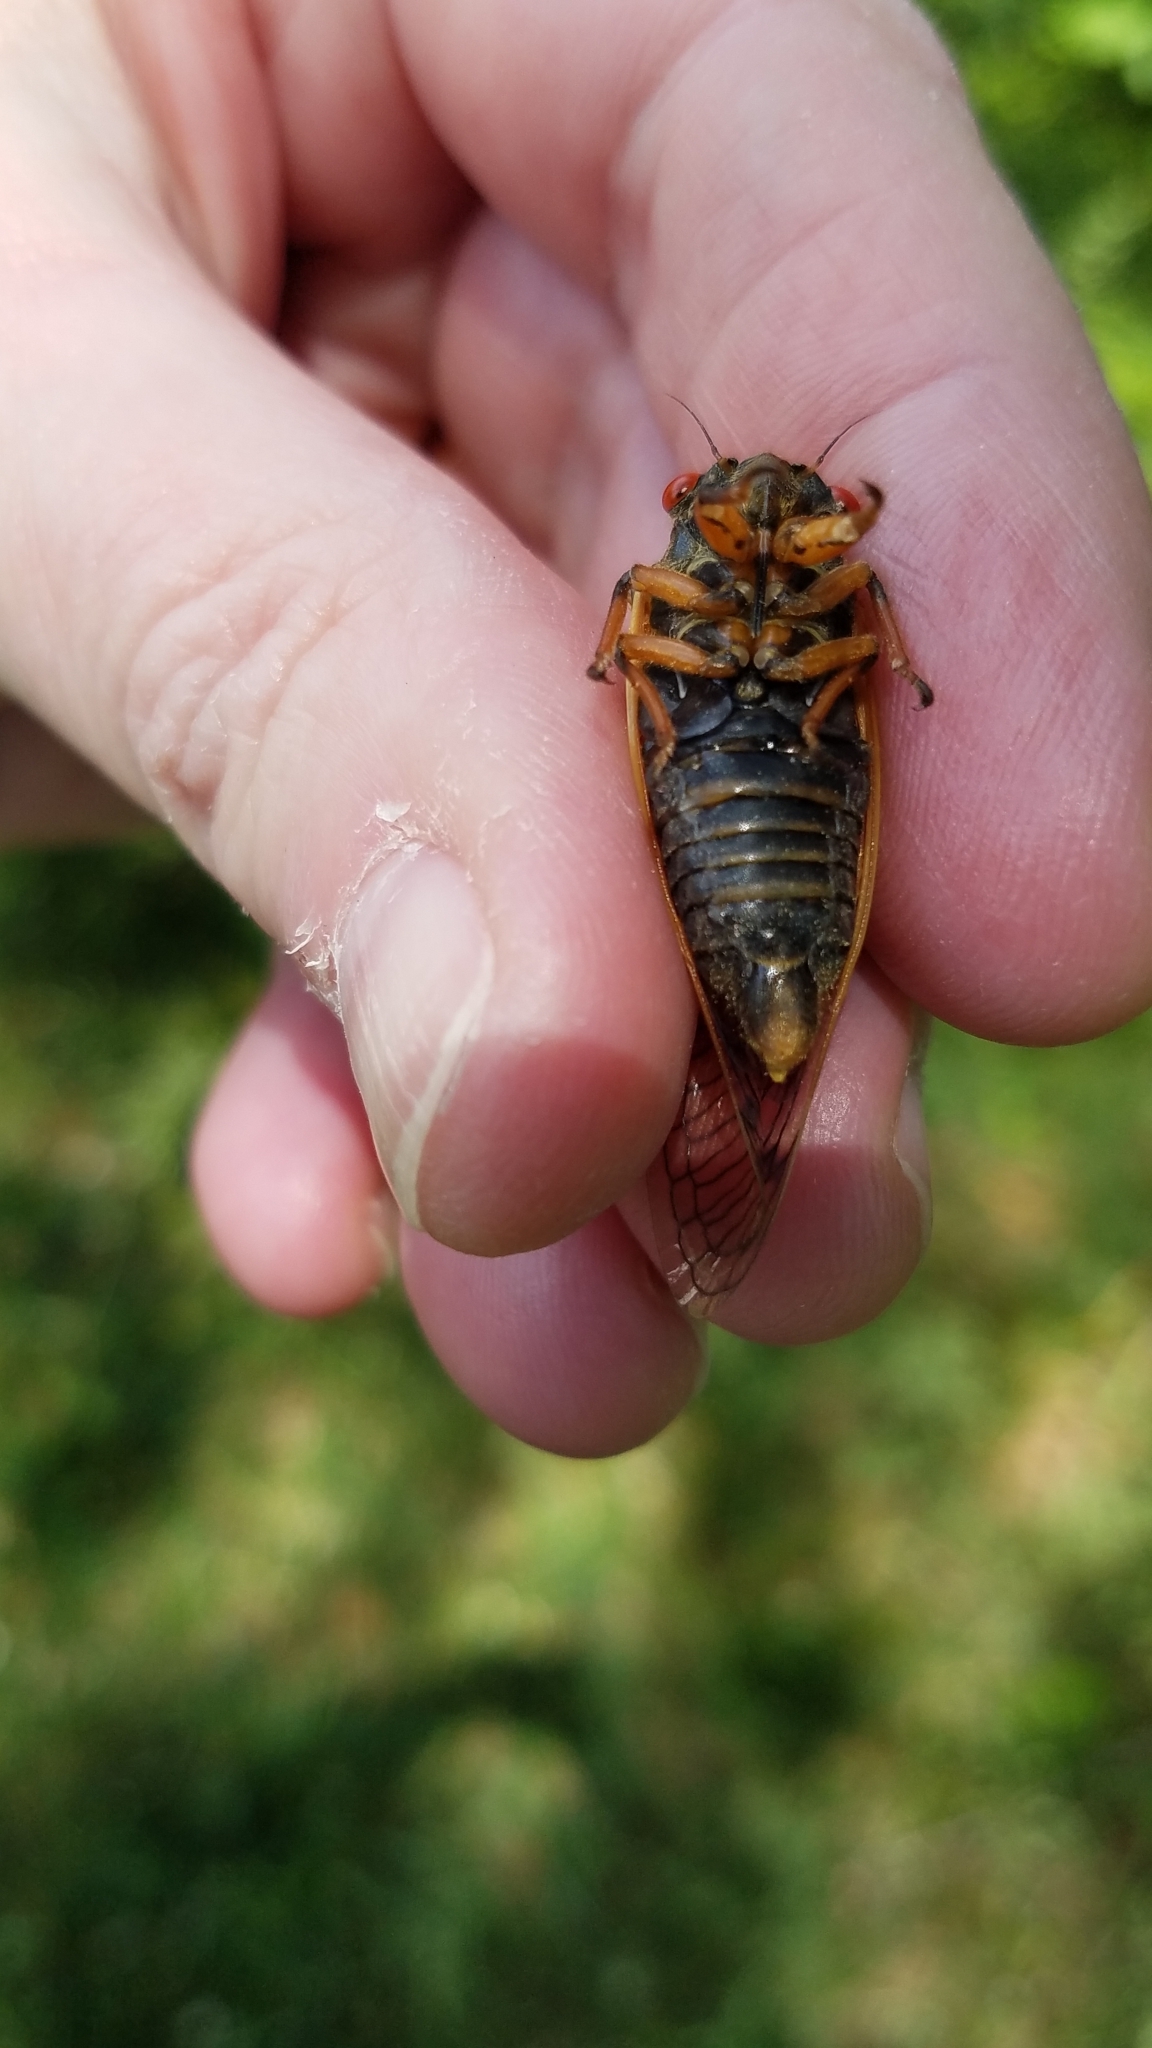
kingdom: Animalia
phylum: Arthropoda
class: Insecta
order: Hemiptera
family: Cicadidae
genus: Magicicada
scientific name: Magicicada cassini
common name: Cassin's 17-year cicada
